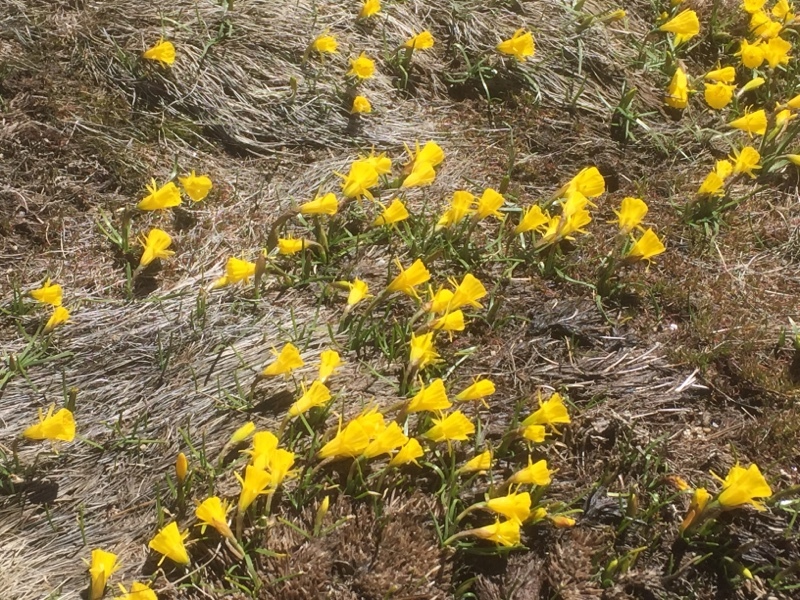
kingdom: Plantae
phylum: Tracheophyta
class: Liliopsida
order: Asparagales
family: Amaryllidaceae
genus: Narcissus
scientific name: Narcissus bulbocodium
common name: Hoop-petticoat daffodil
